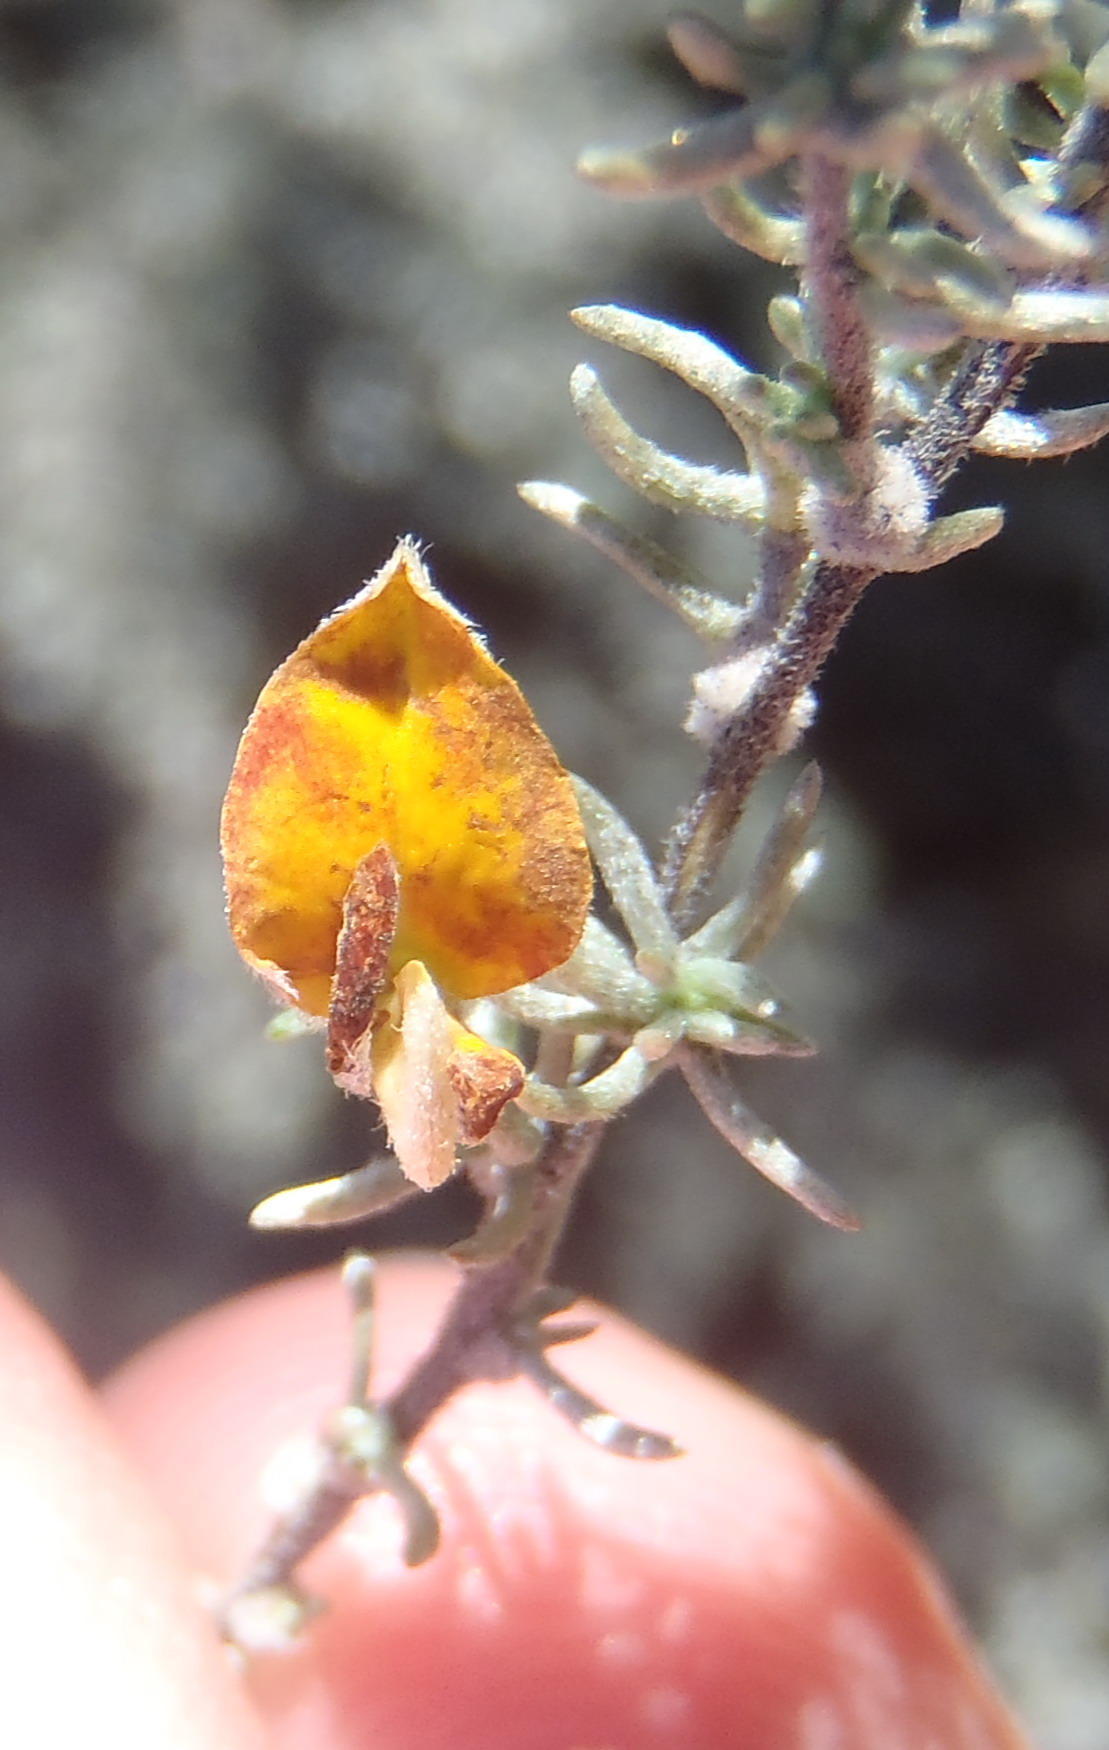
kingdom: Plantae
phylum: Tracheophyta
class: Magnoliopsida
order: Fabales
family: Fabaceae
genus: Aspalathus
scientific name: Aspalathus pedunculata
